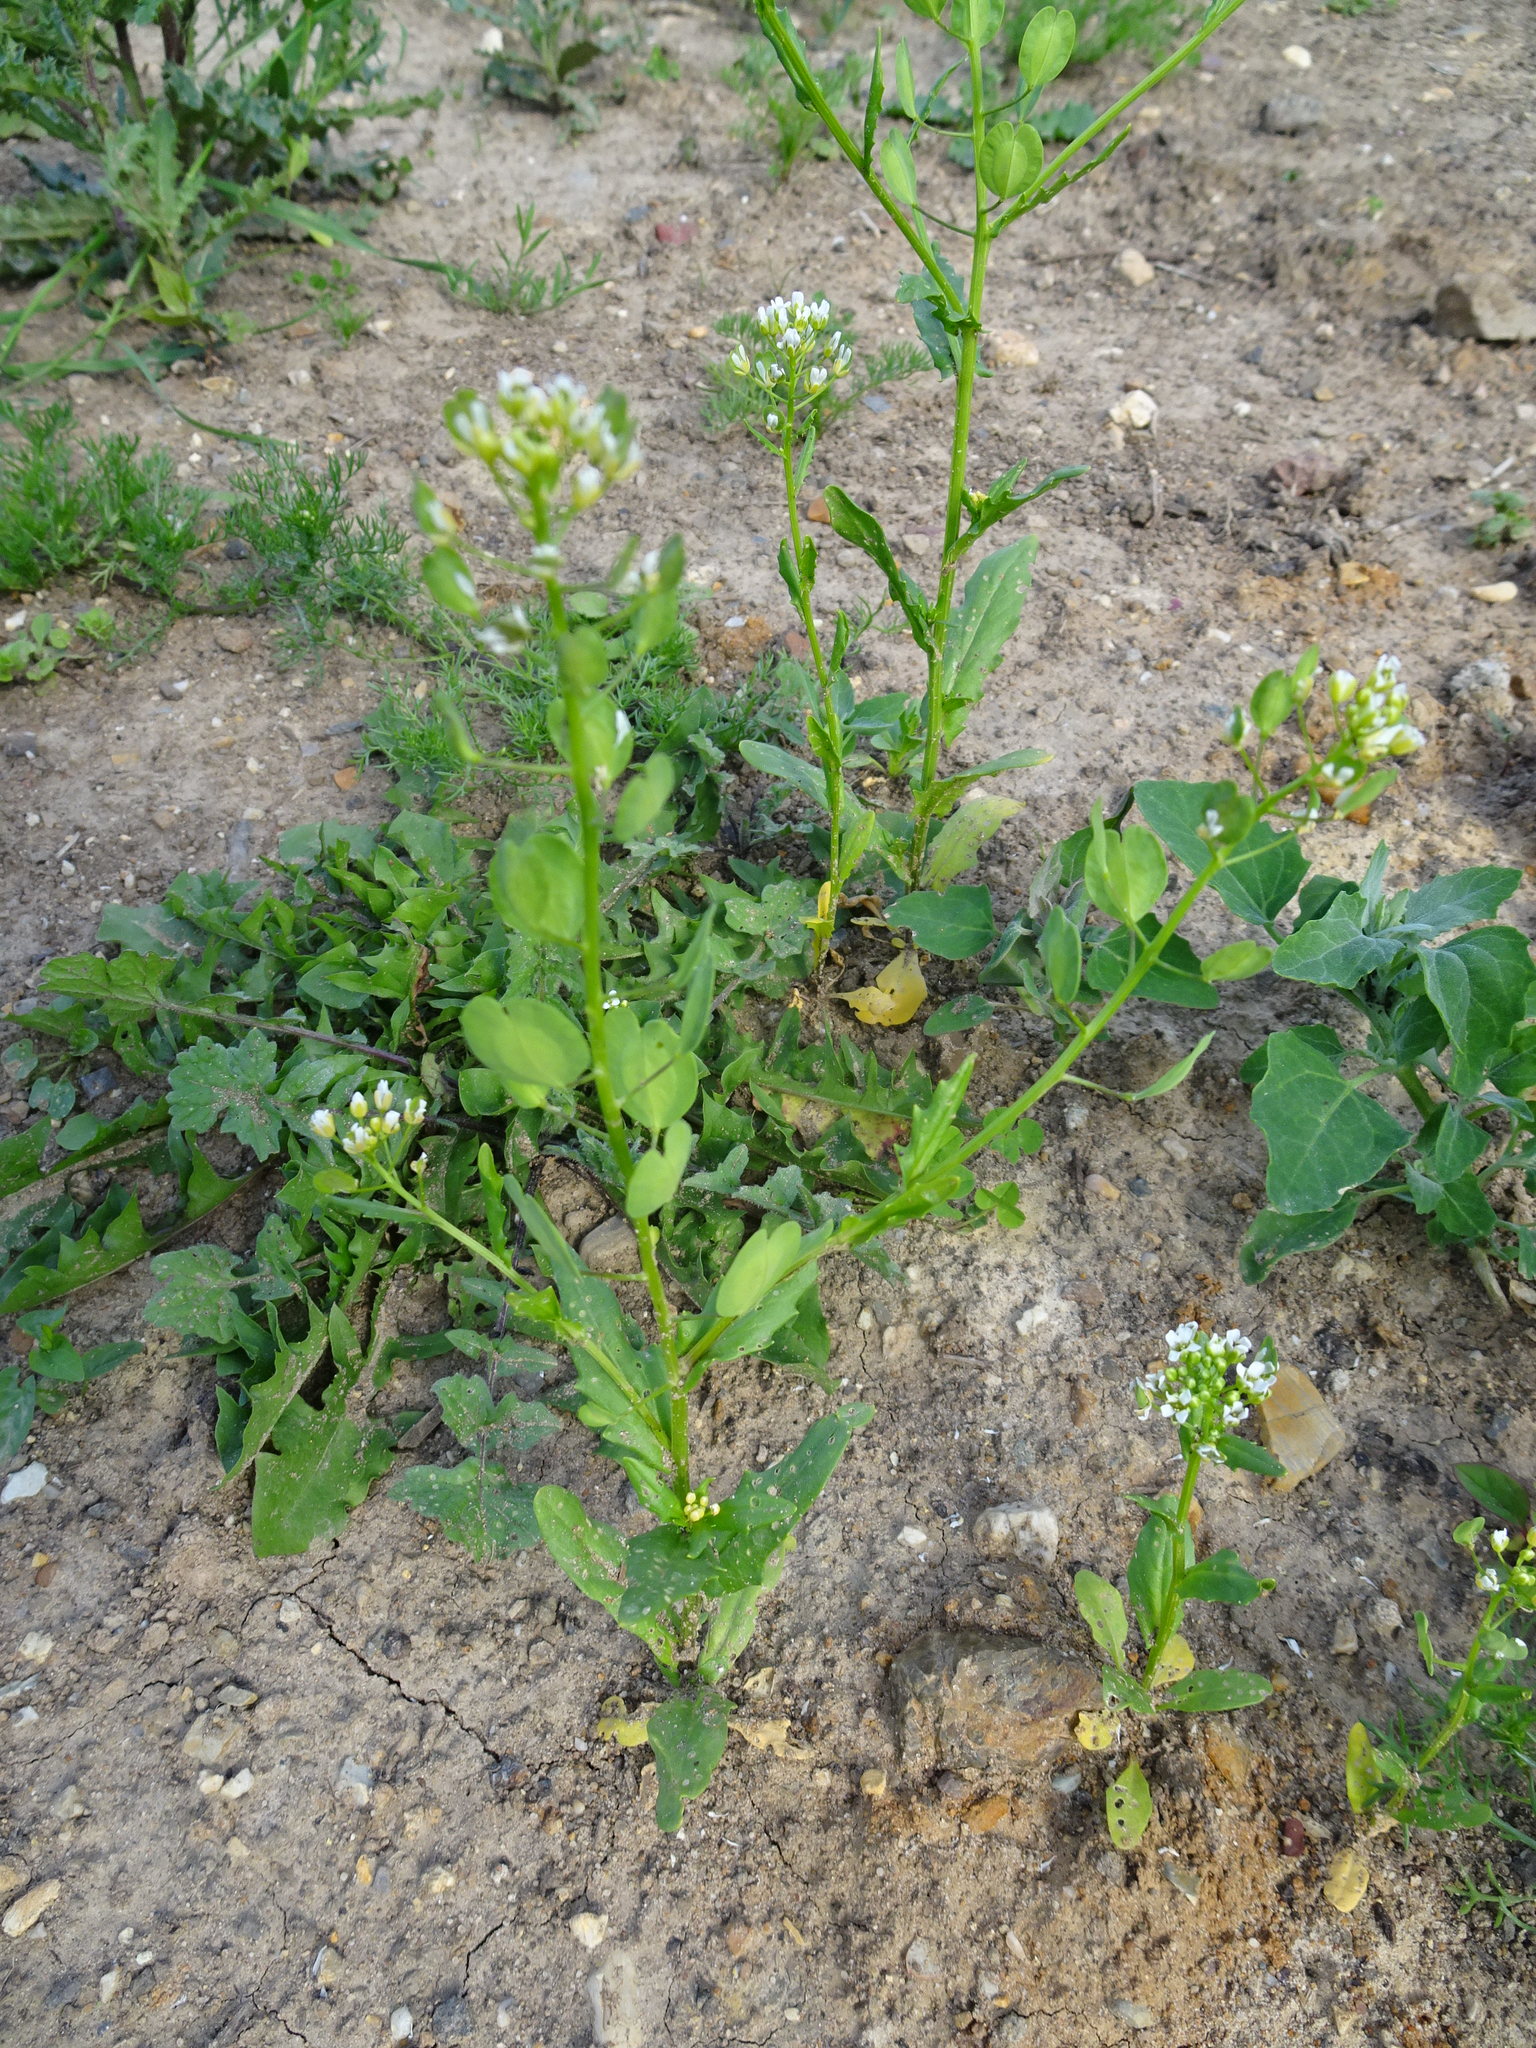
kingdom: Plantae
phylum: Tracheophyta
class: Magnoliopsida
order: Brassicales
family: Brassicaceae
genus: Thlaspi
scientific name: Thlaspi arvense
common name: Field pennycress
